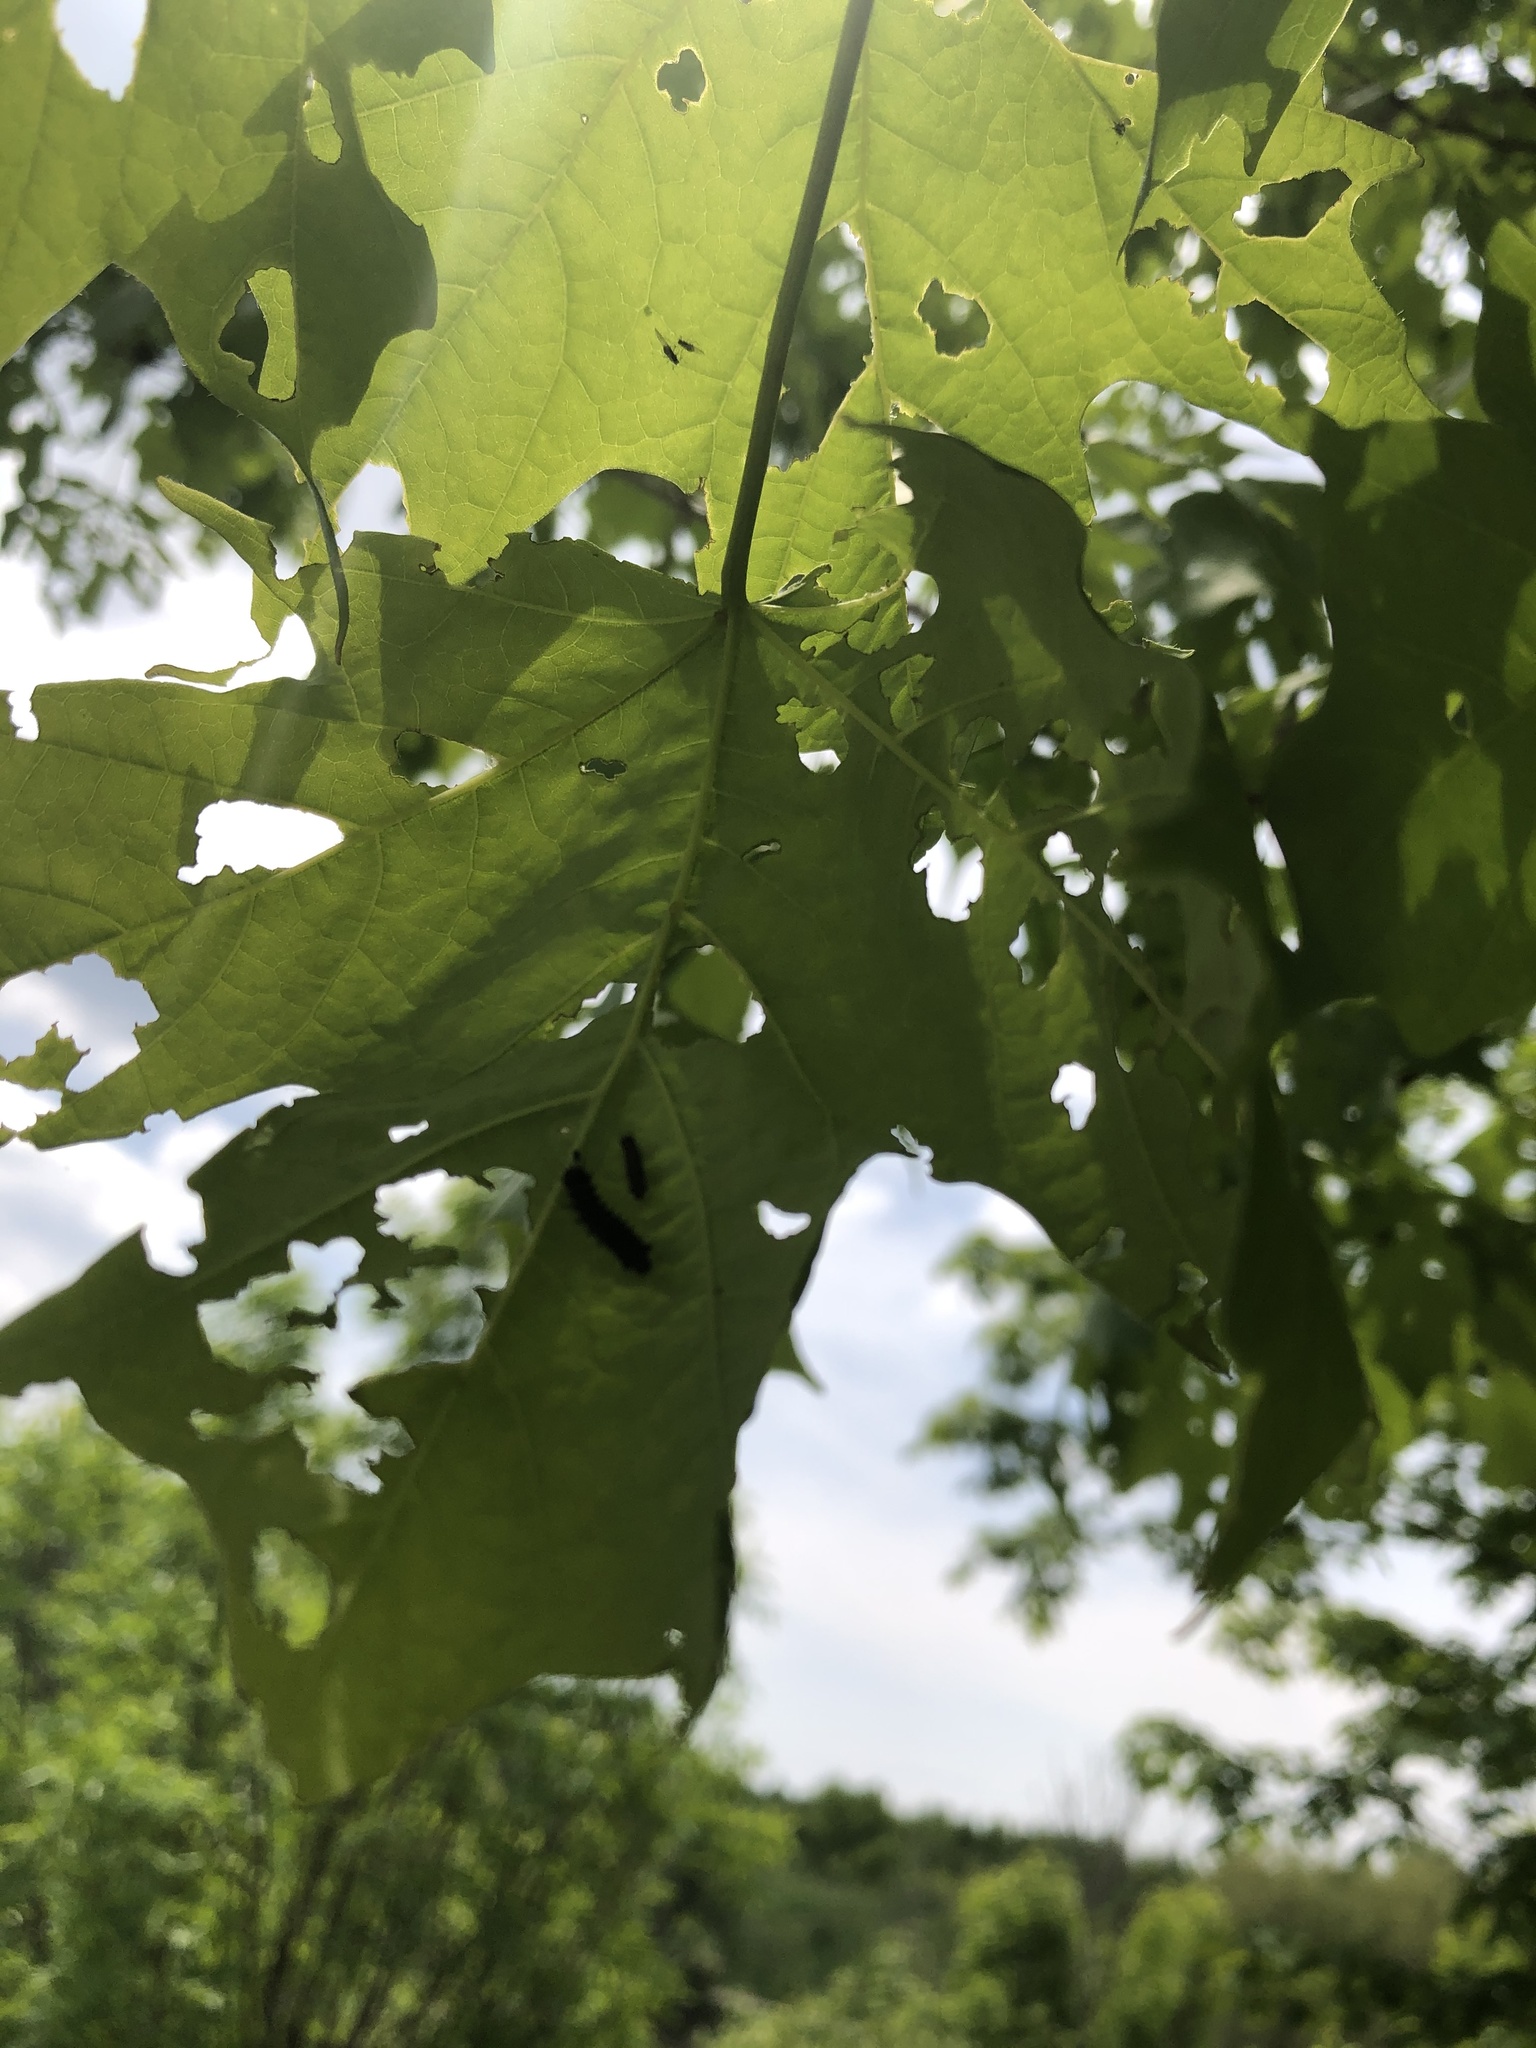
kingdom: Animalia
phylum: Arthropoda
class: Insecta
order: Lepidoptera
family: Erebidae
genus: Lymantria
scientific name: Lymantria dispar
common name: Gypsy moth
